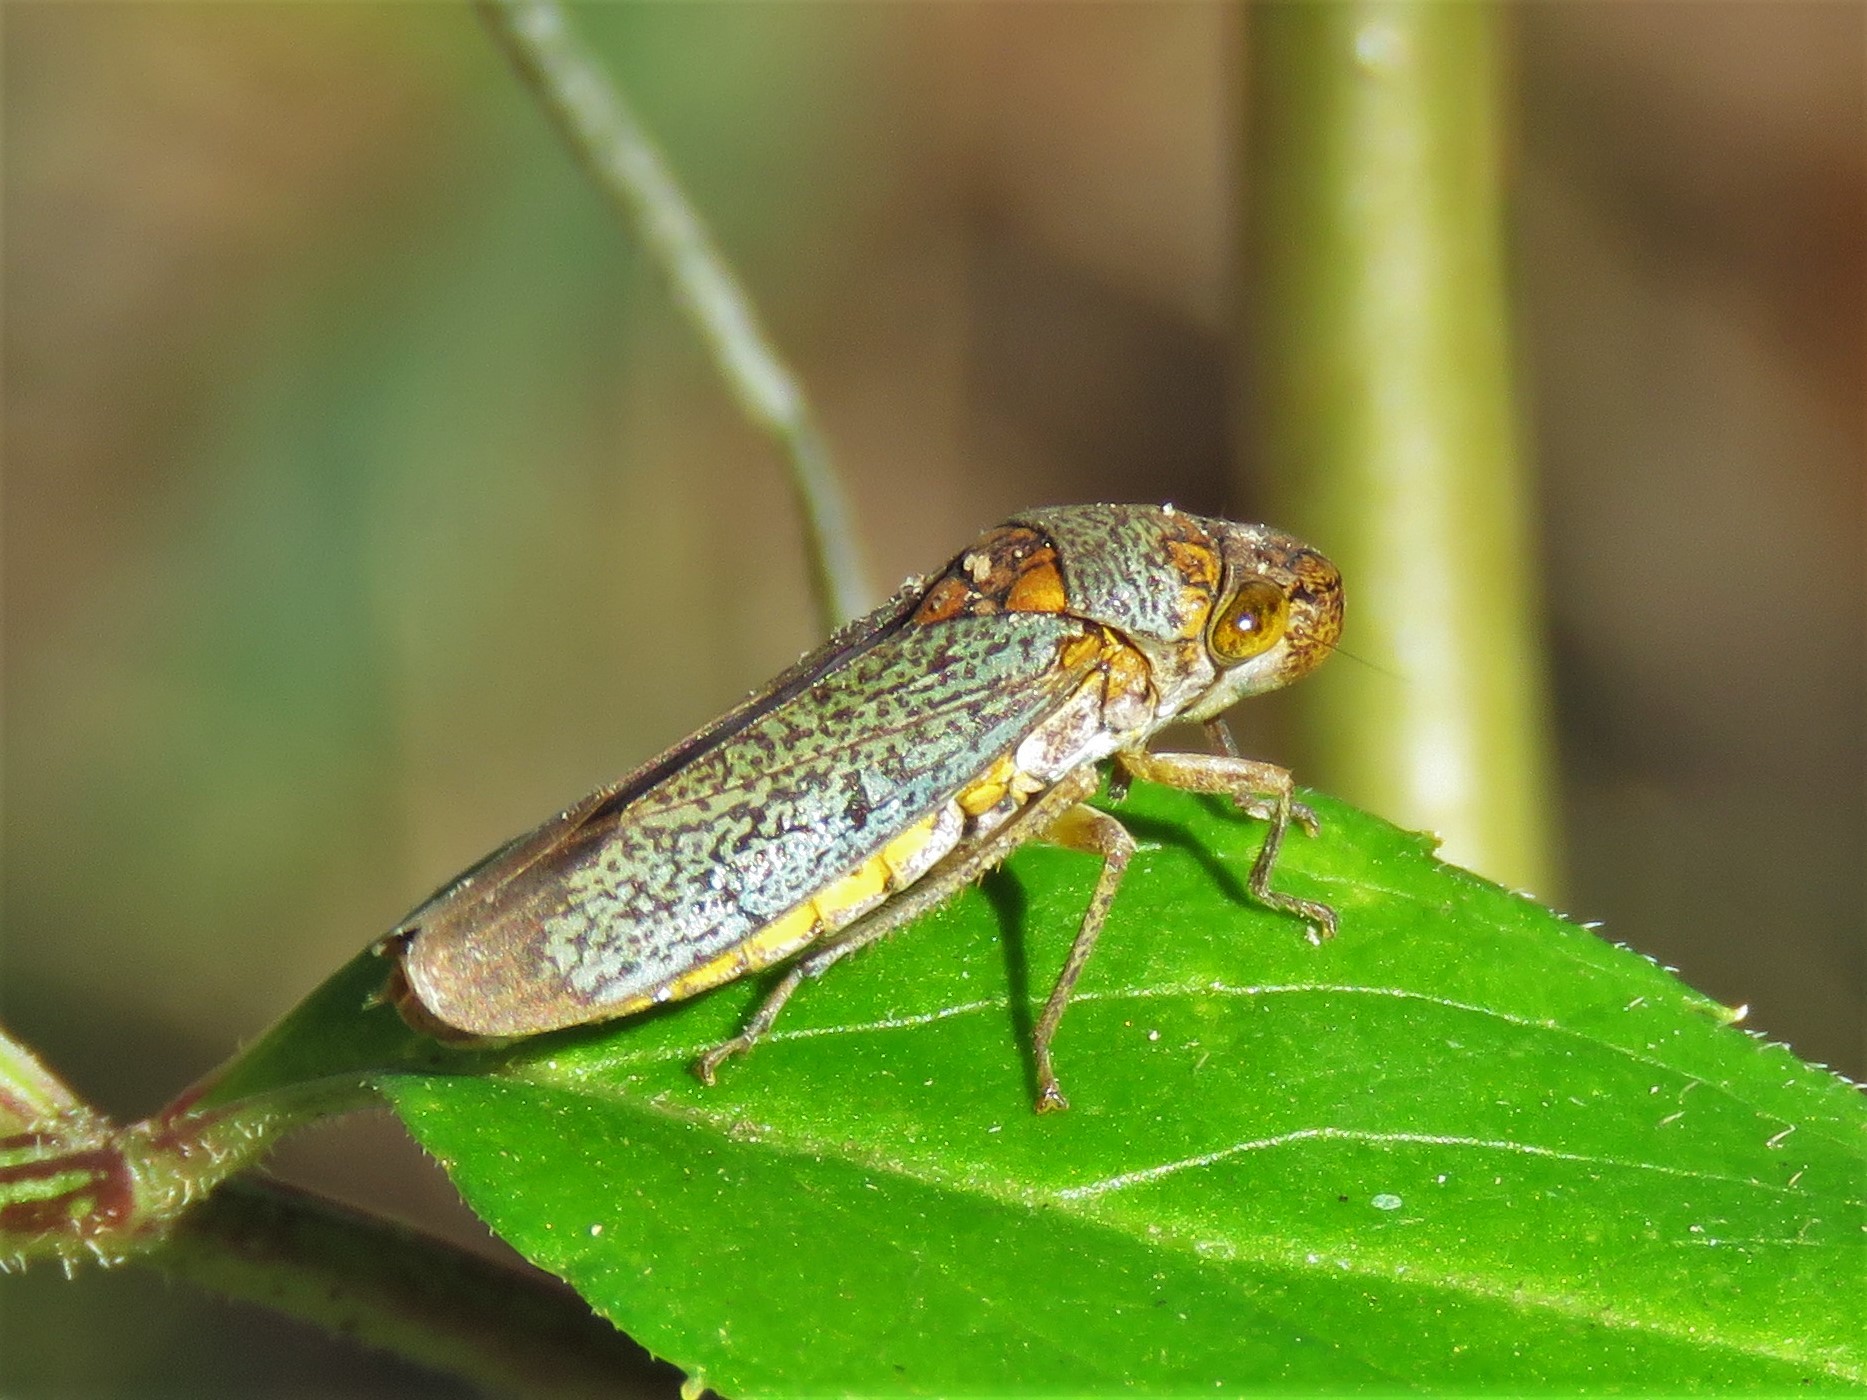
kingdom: Animalia
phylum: Arthropoda
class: Insecta
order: Hemiptera
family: Cicadellidae
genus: Oncometopia
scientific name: Oncometopia orbona
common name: Broad-headed sharpshooter
